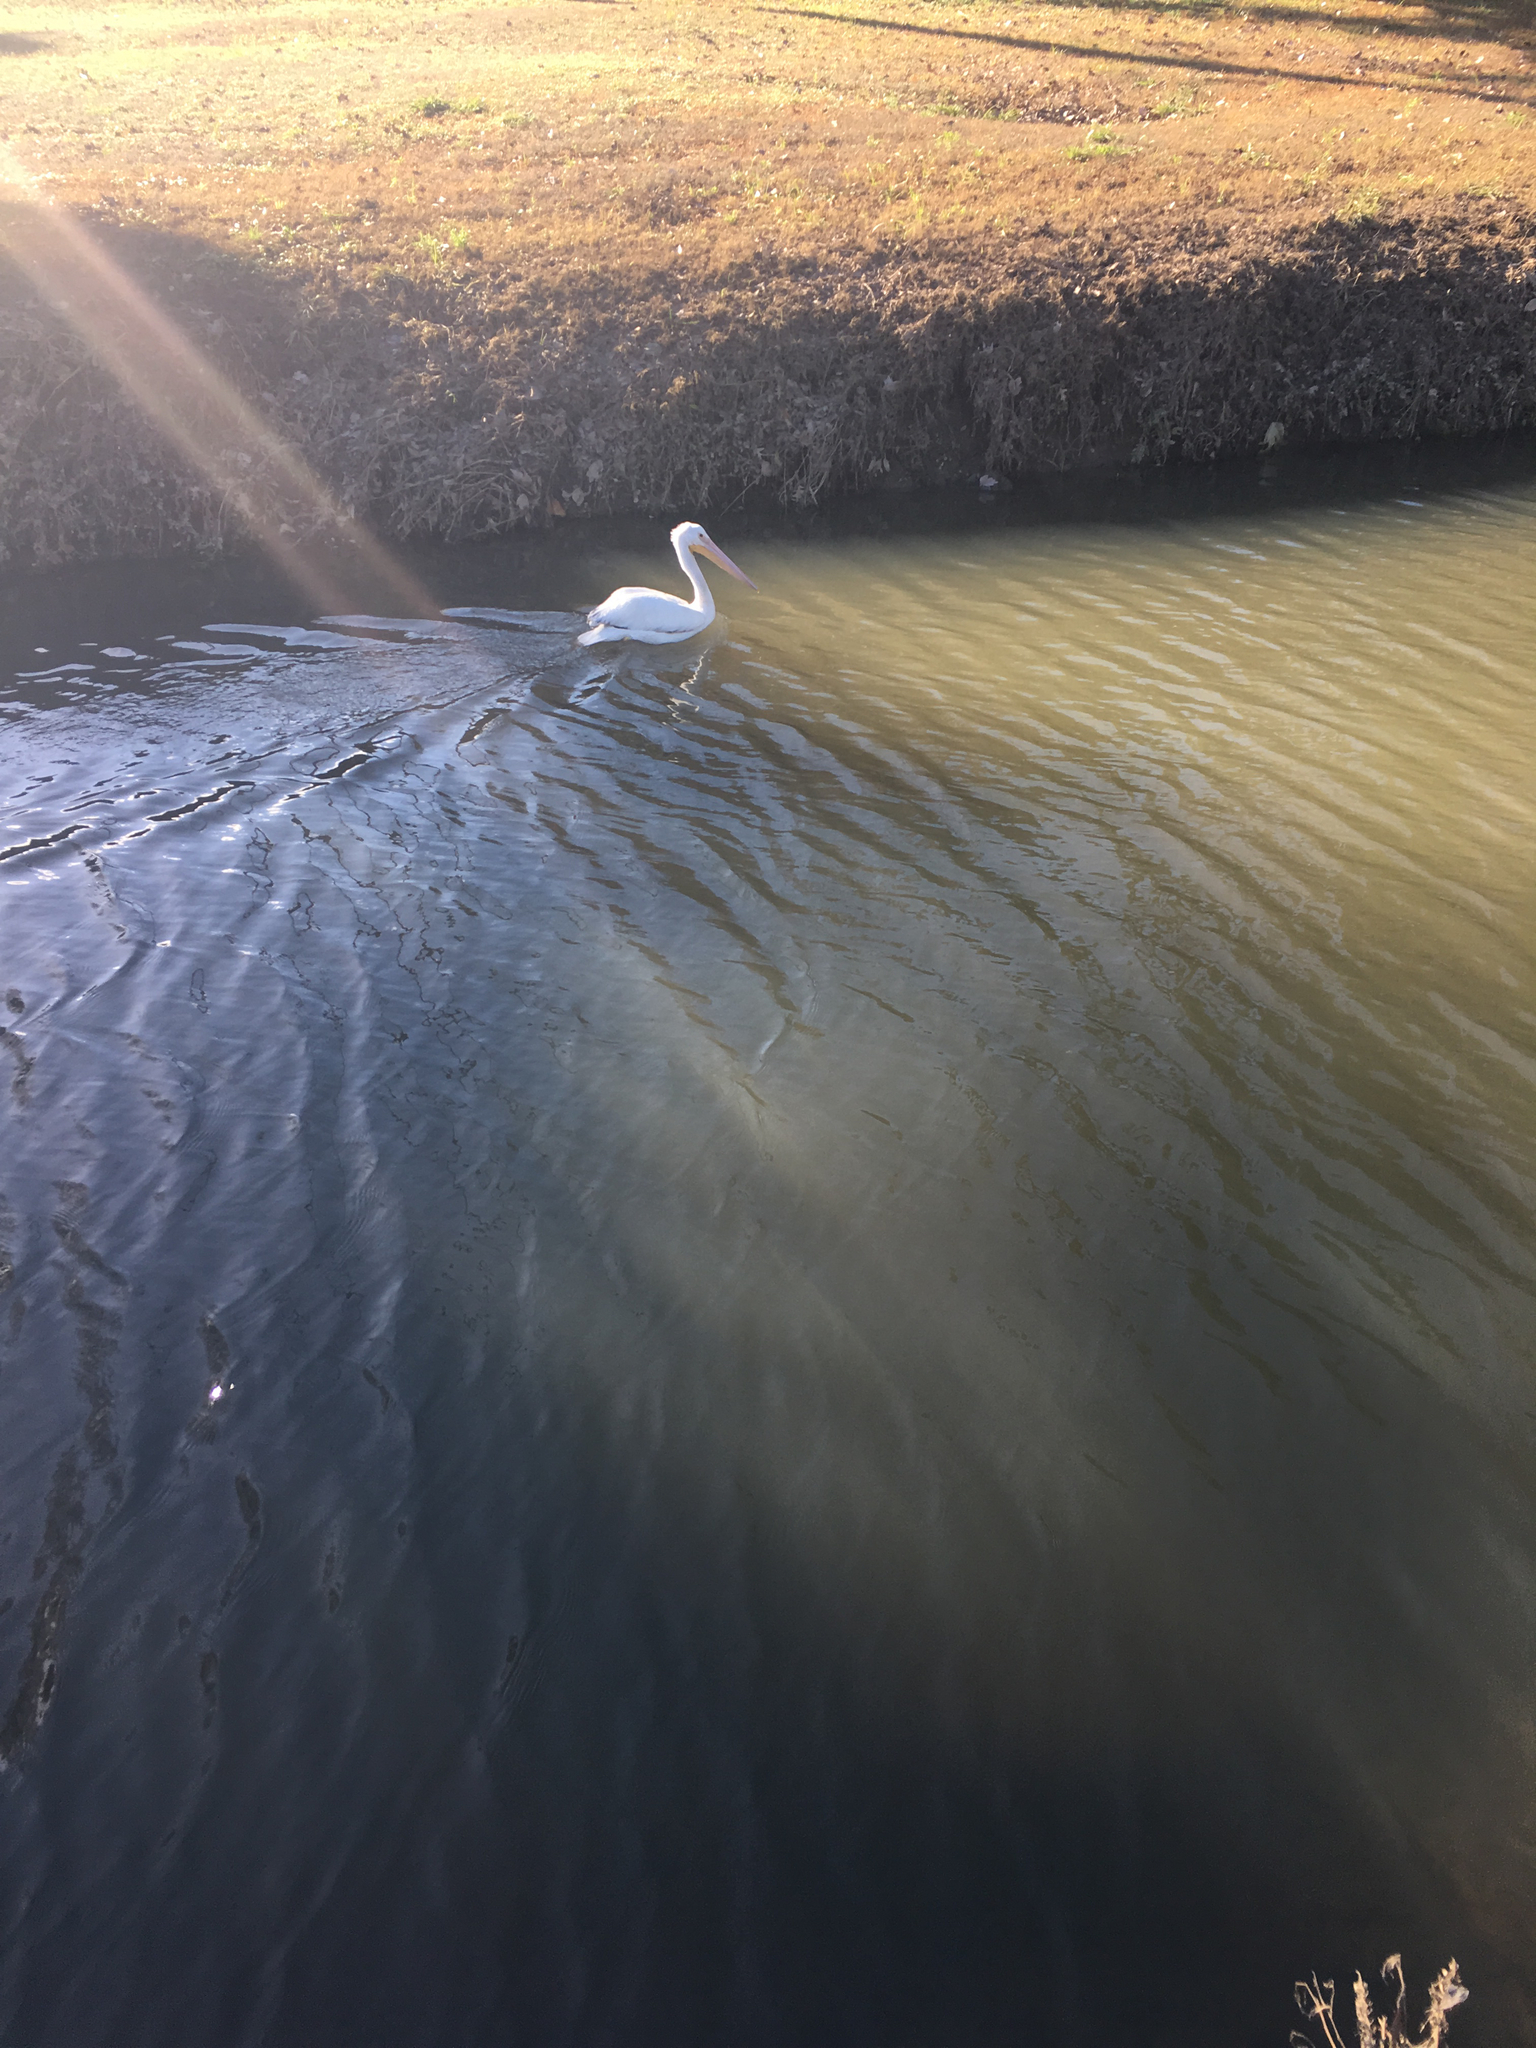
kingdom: Animalia
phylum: Chordata
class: Aves
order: Pelecaniformes
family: Pelecanidae
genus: Pelecanus
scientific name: Pelecanus erythrorhynchos
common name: American white pelican
